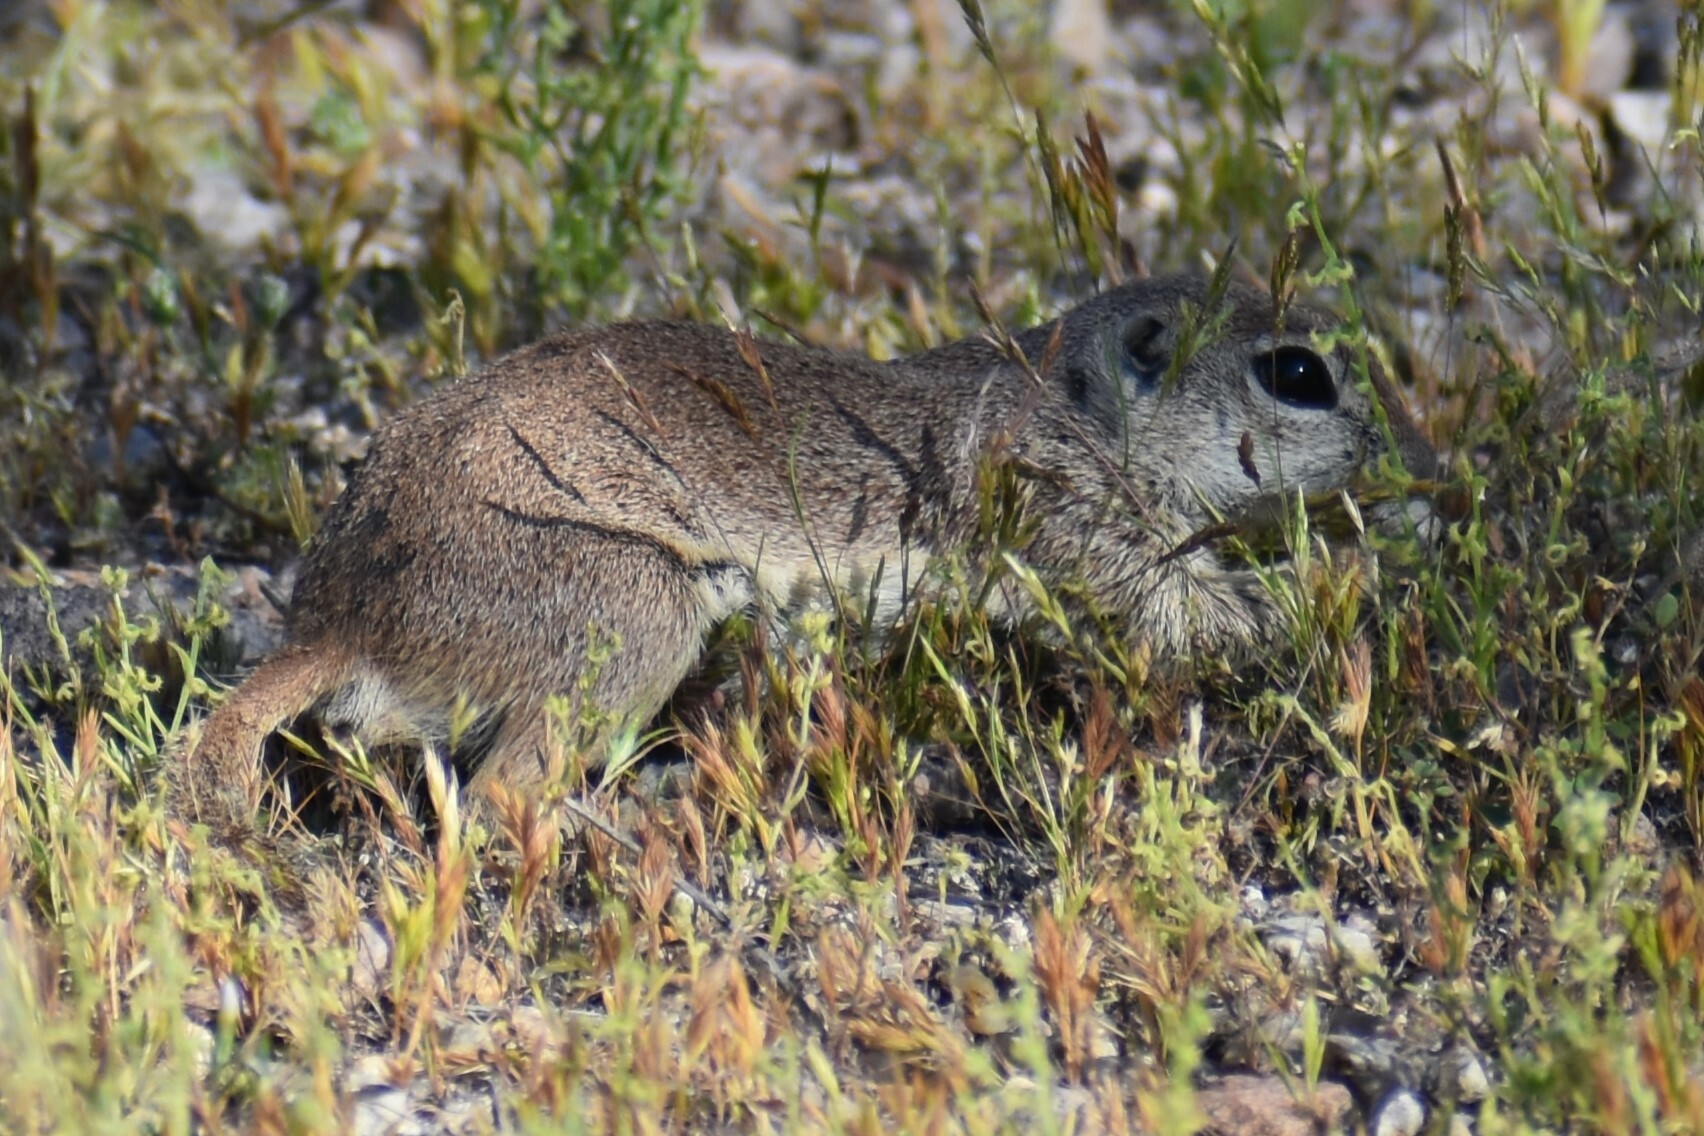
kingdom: Animalia
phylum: Chordata
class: Mammalia
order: Rodentia
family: Sciuridae
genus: Xerospermophilus
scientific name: Xerospermophilus tereticaudus
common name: Round-tailed ground squirrel
